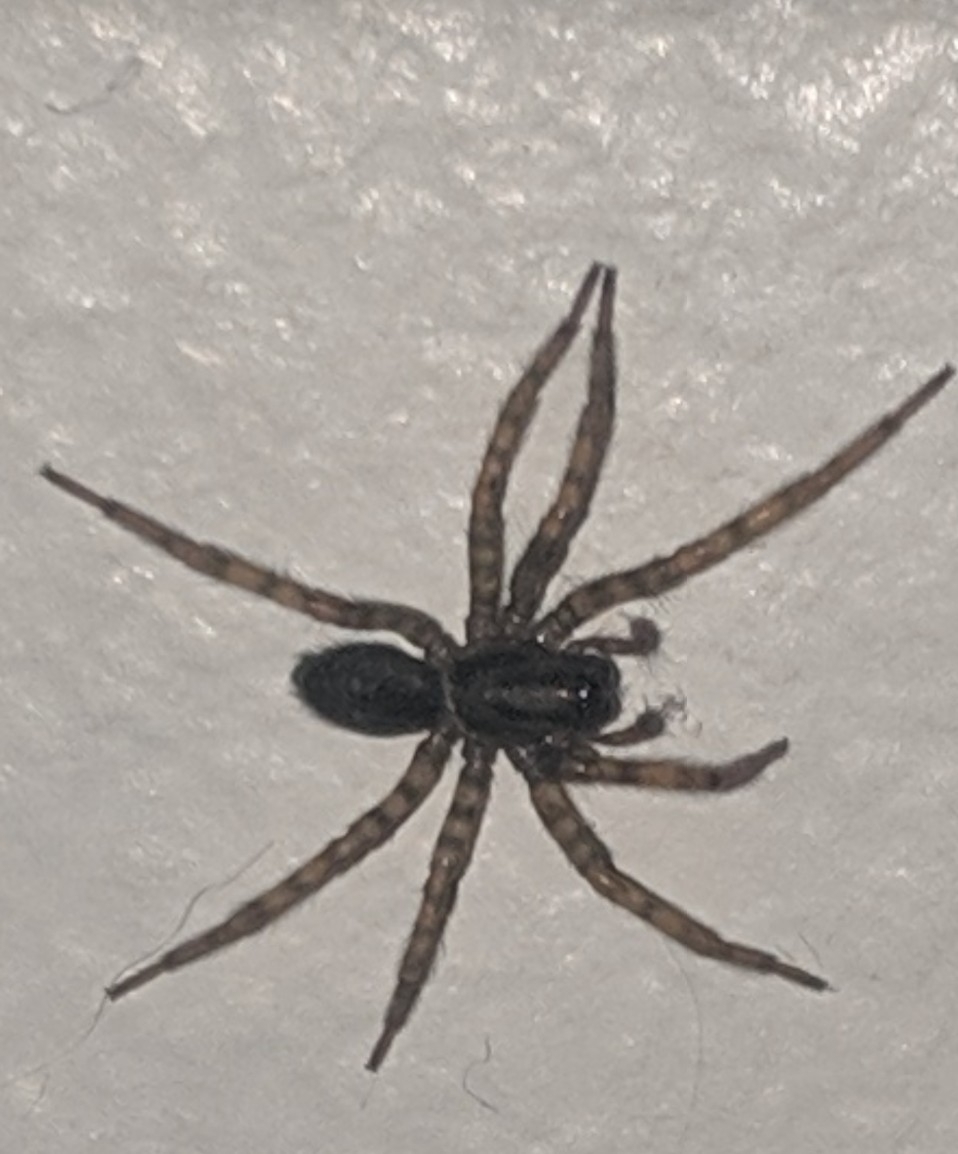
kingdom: Animalia
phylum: Arthropoda
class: Arachnida
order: Araneae
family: Agelenidae
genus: Coras
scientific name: Coras
